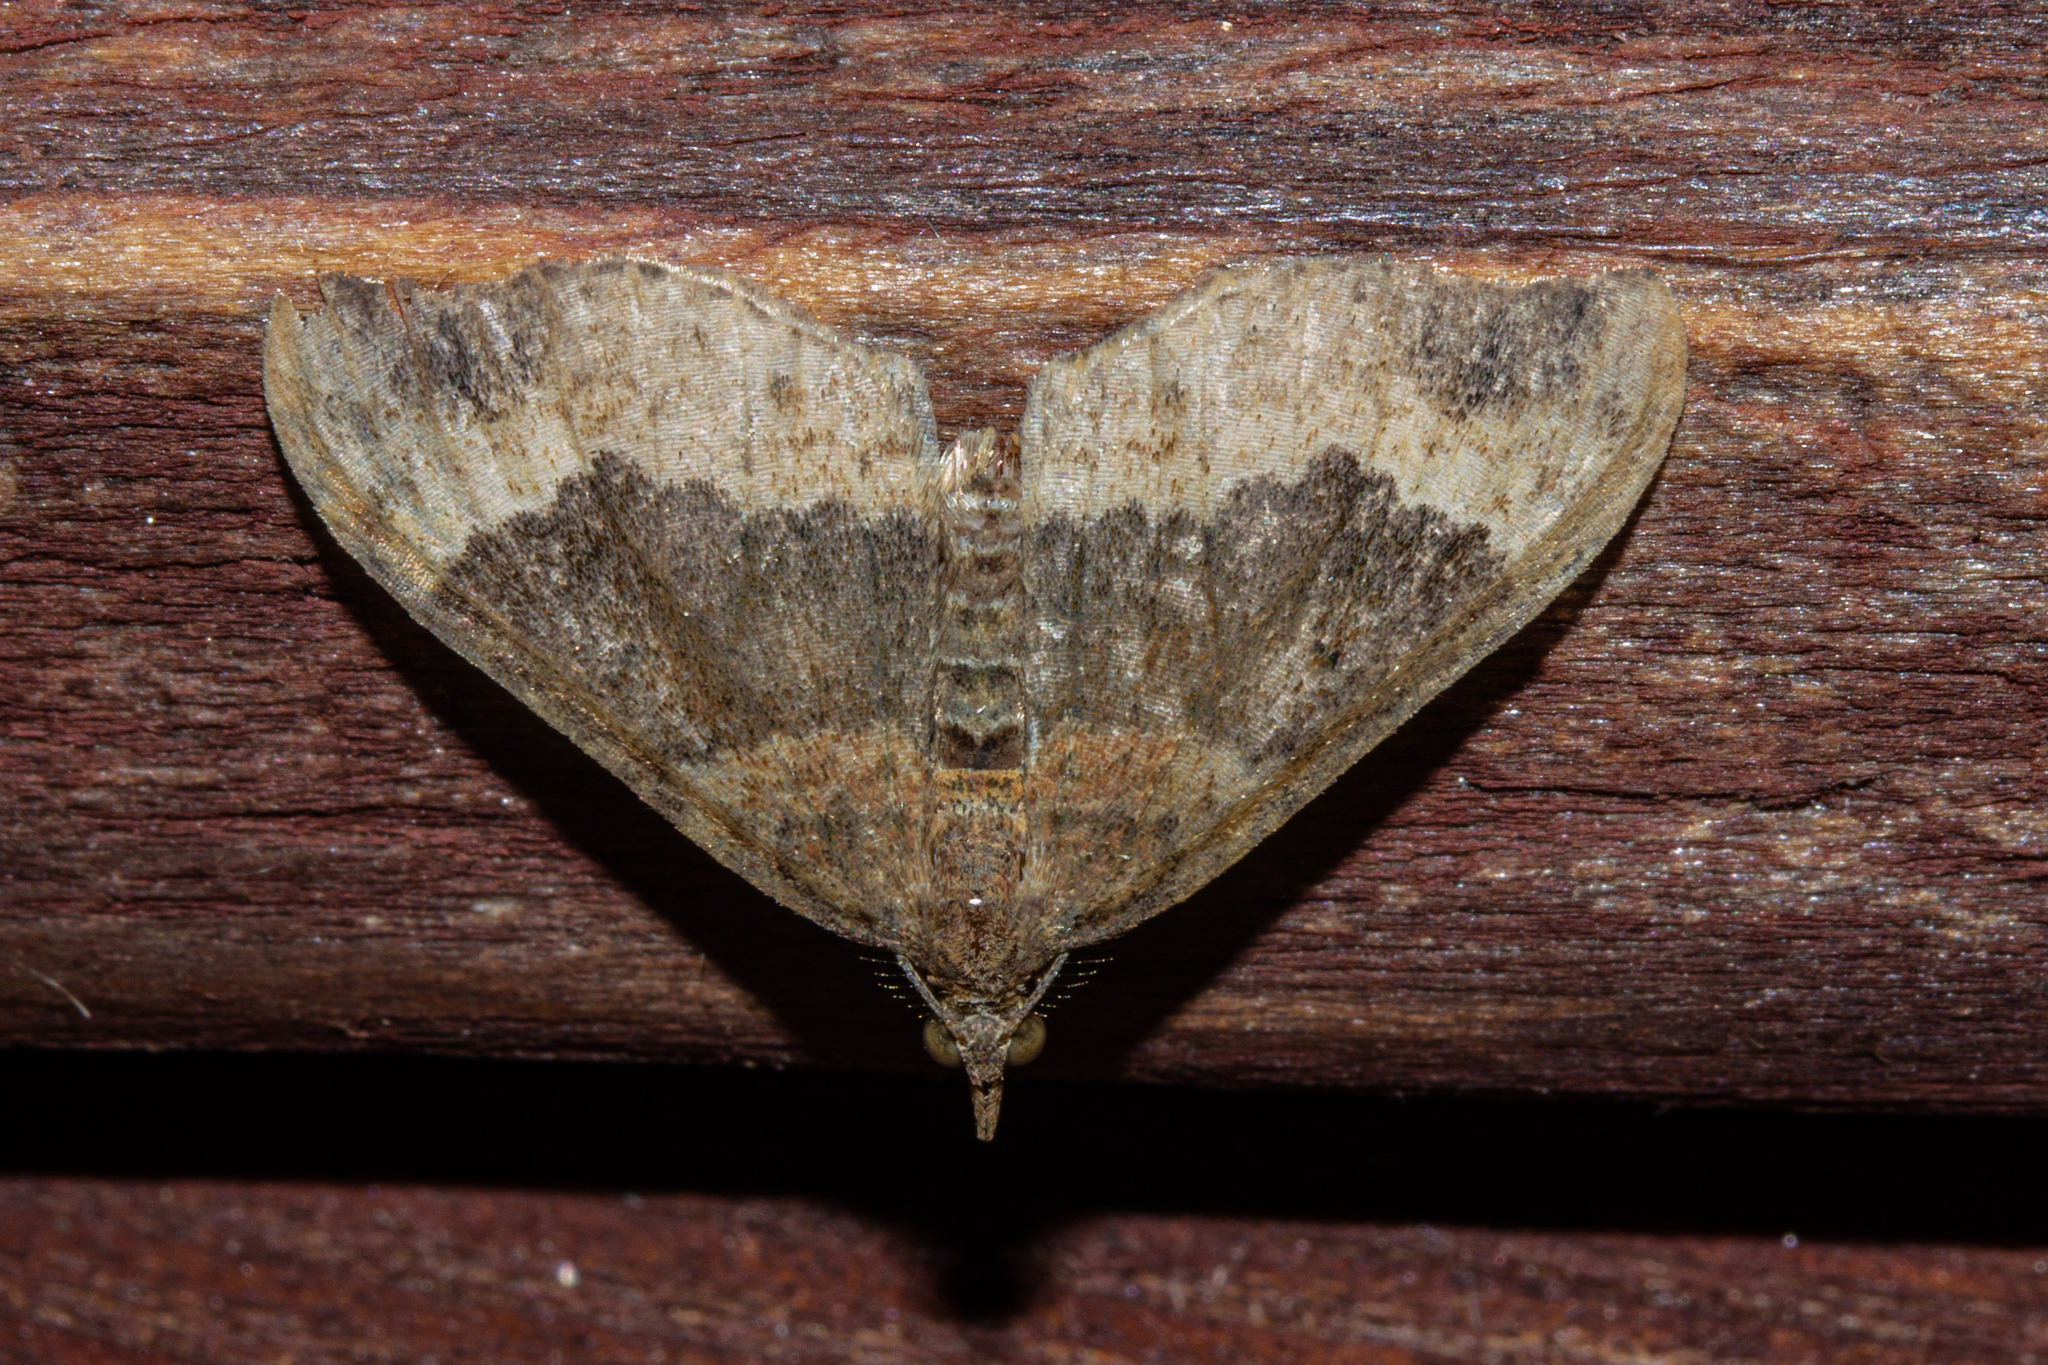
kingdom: Animalia
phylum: Arthropoda
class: Insecta
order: Lepidoptera
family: Geometridae
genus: Homodotis
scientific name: Homodotis megaspilata
